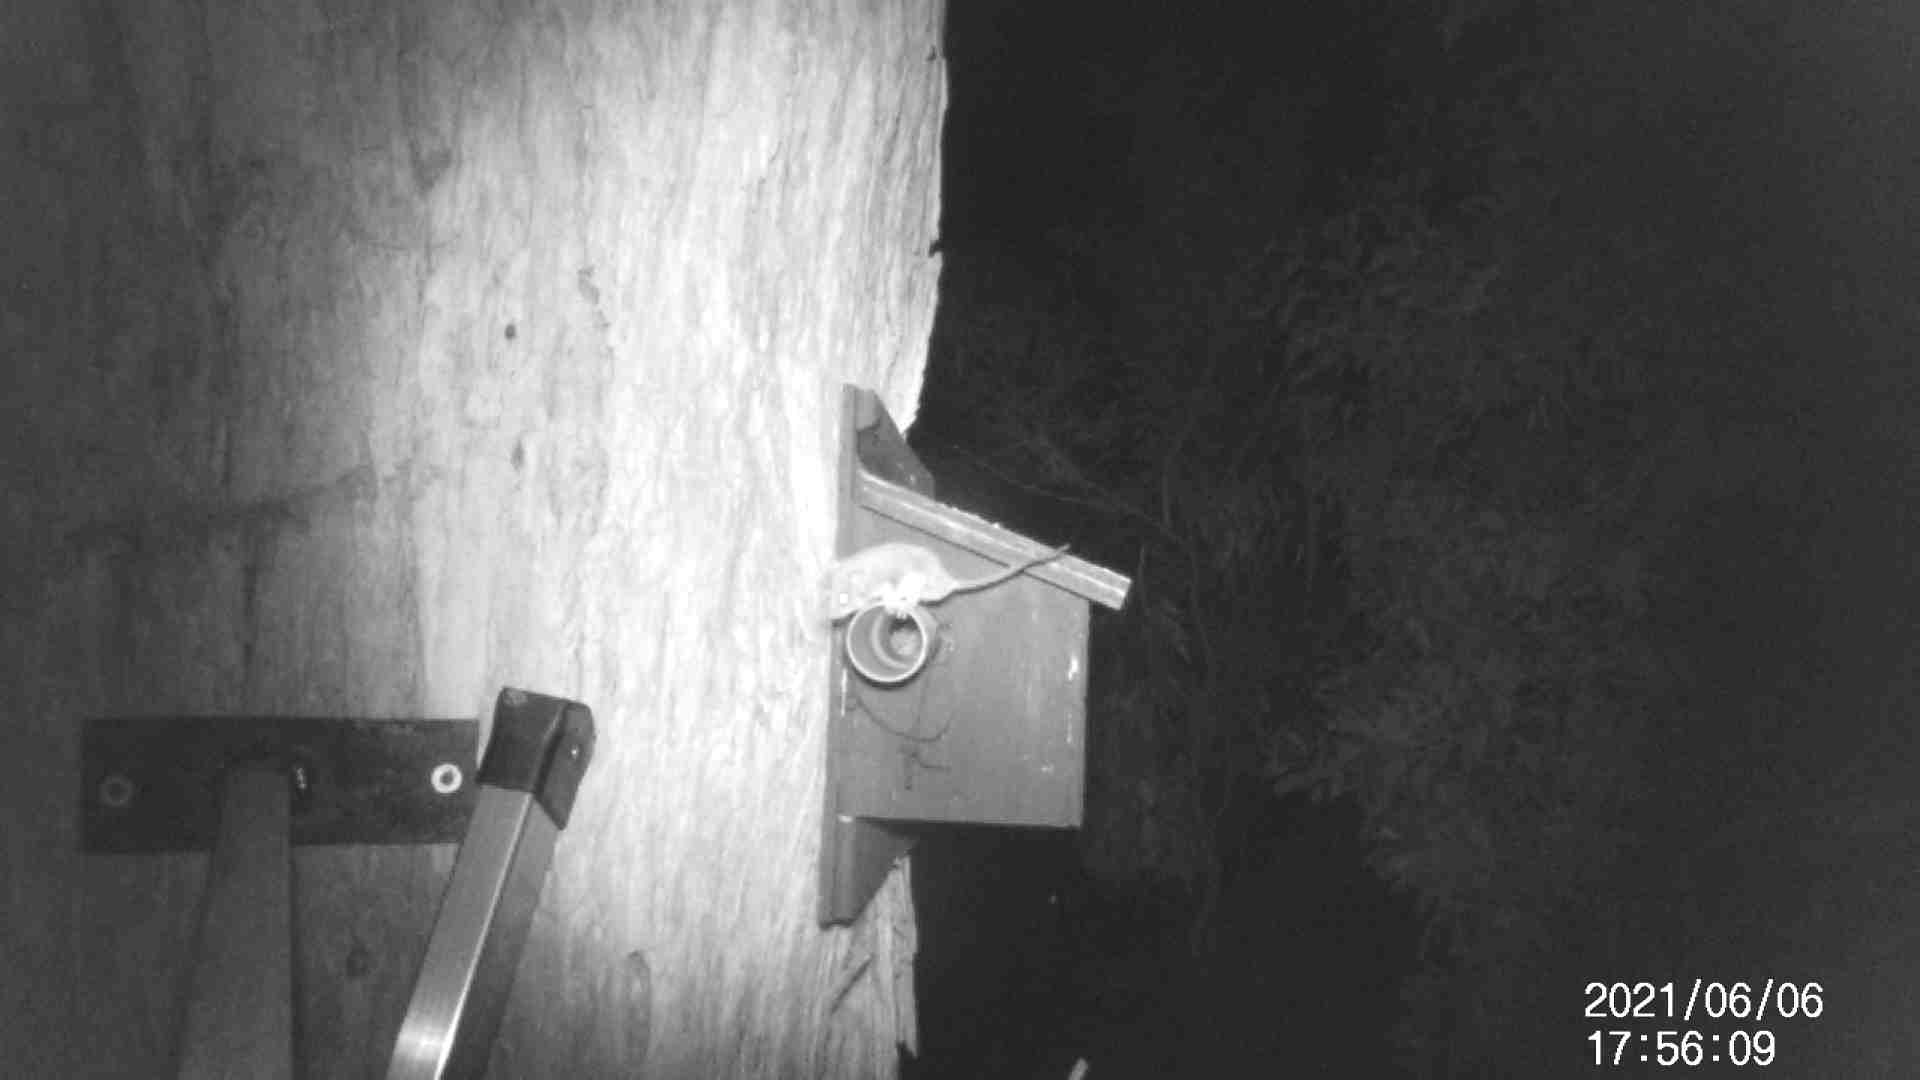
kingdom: Animalia
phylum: Chordata
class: Mammalia
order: Diprotodontia
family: Acrobatidae
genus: Acrobates
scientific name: Acrobates pygmaeus
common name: Feathertail glider
